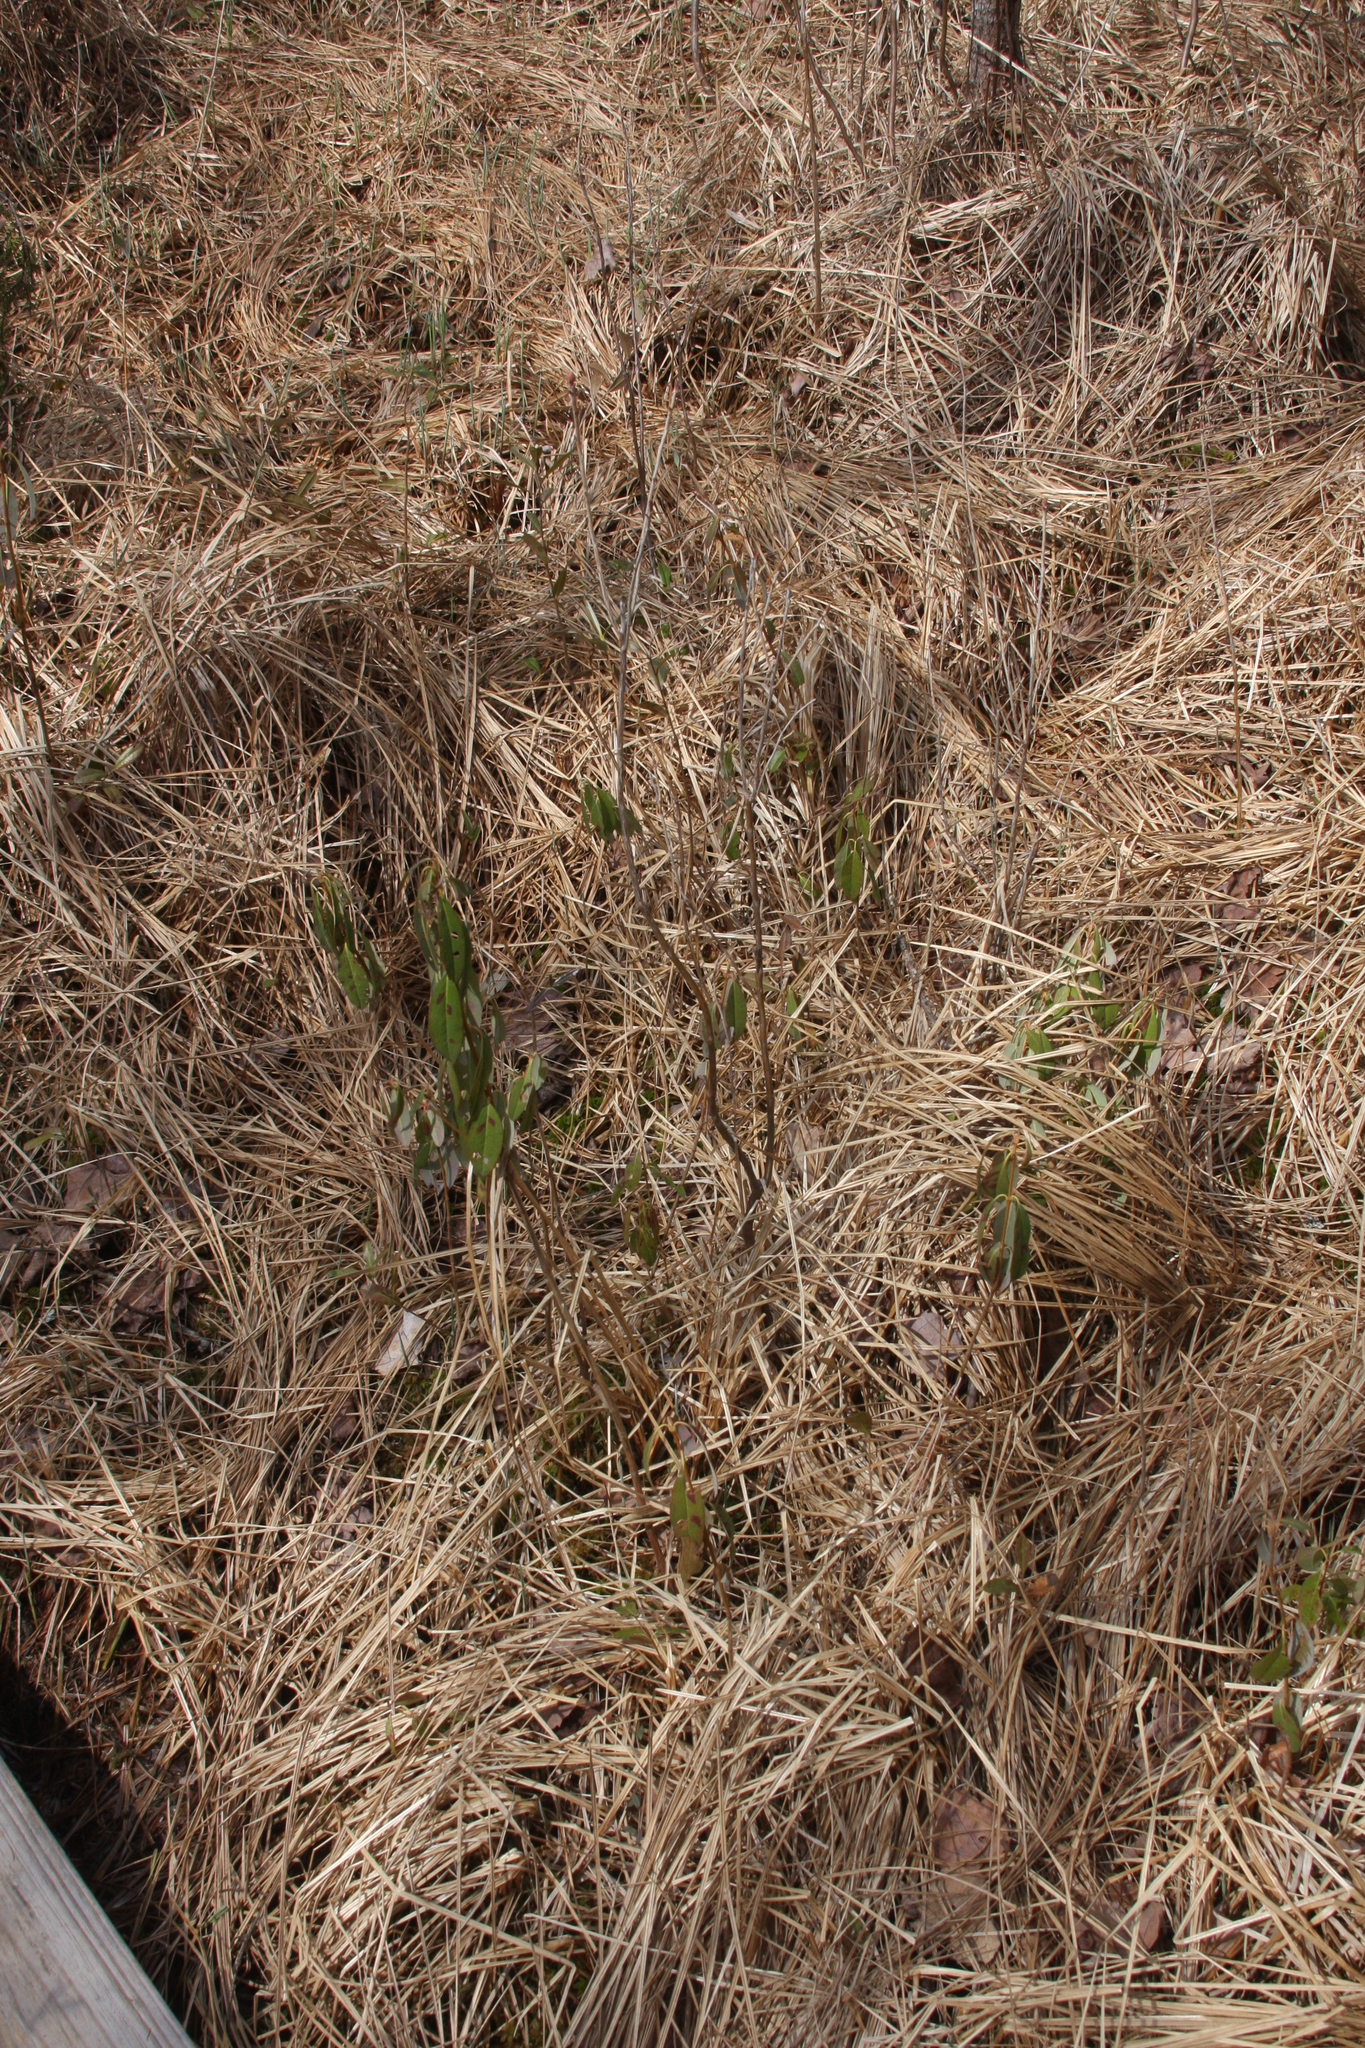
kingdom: Plantae
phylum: Tracheophyta
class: Magnoliopsida
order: Ericales
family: Ericaceae
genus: Kalmia
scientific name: Kalmia angustifolia
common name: Sheep-laurel
